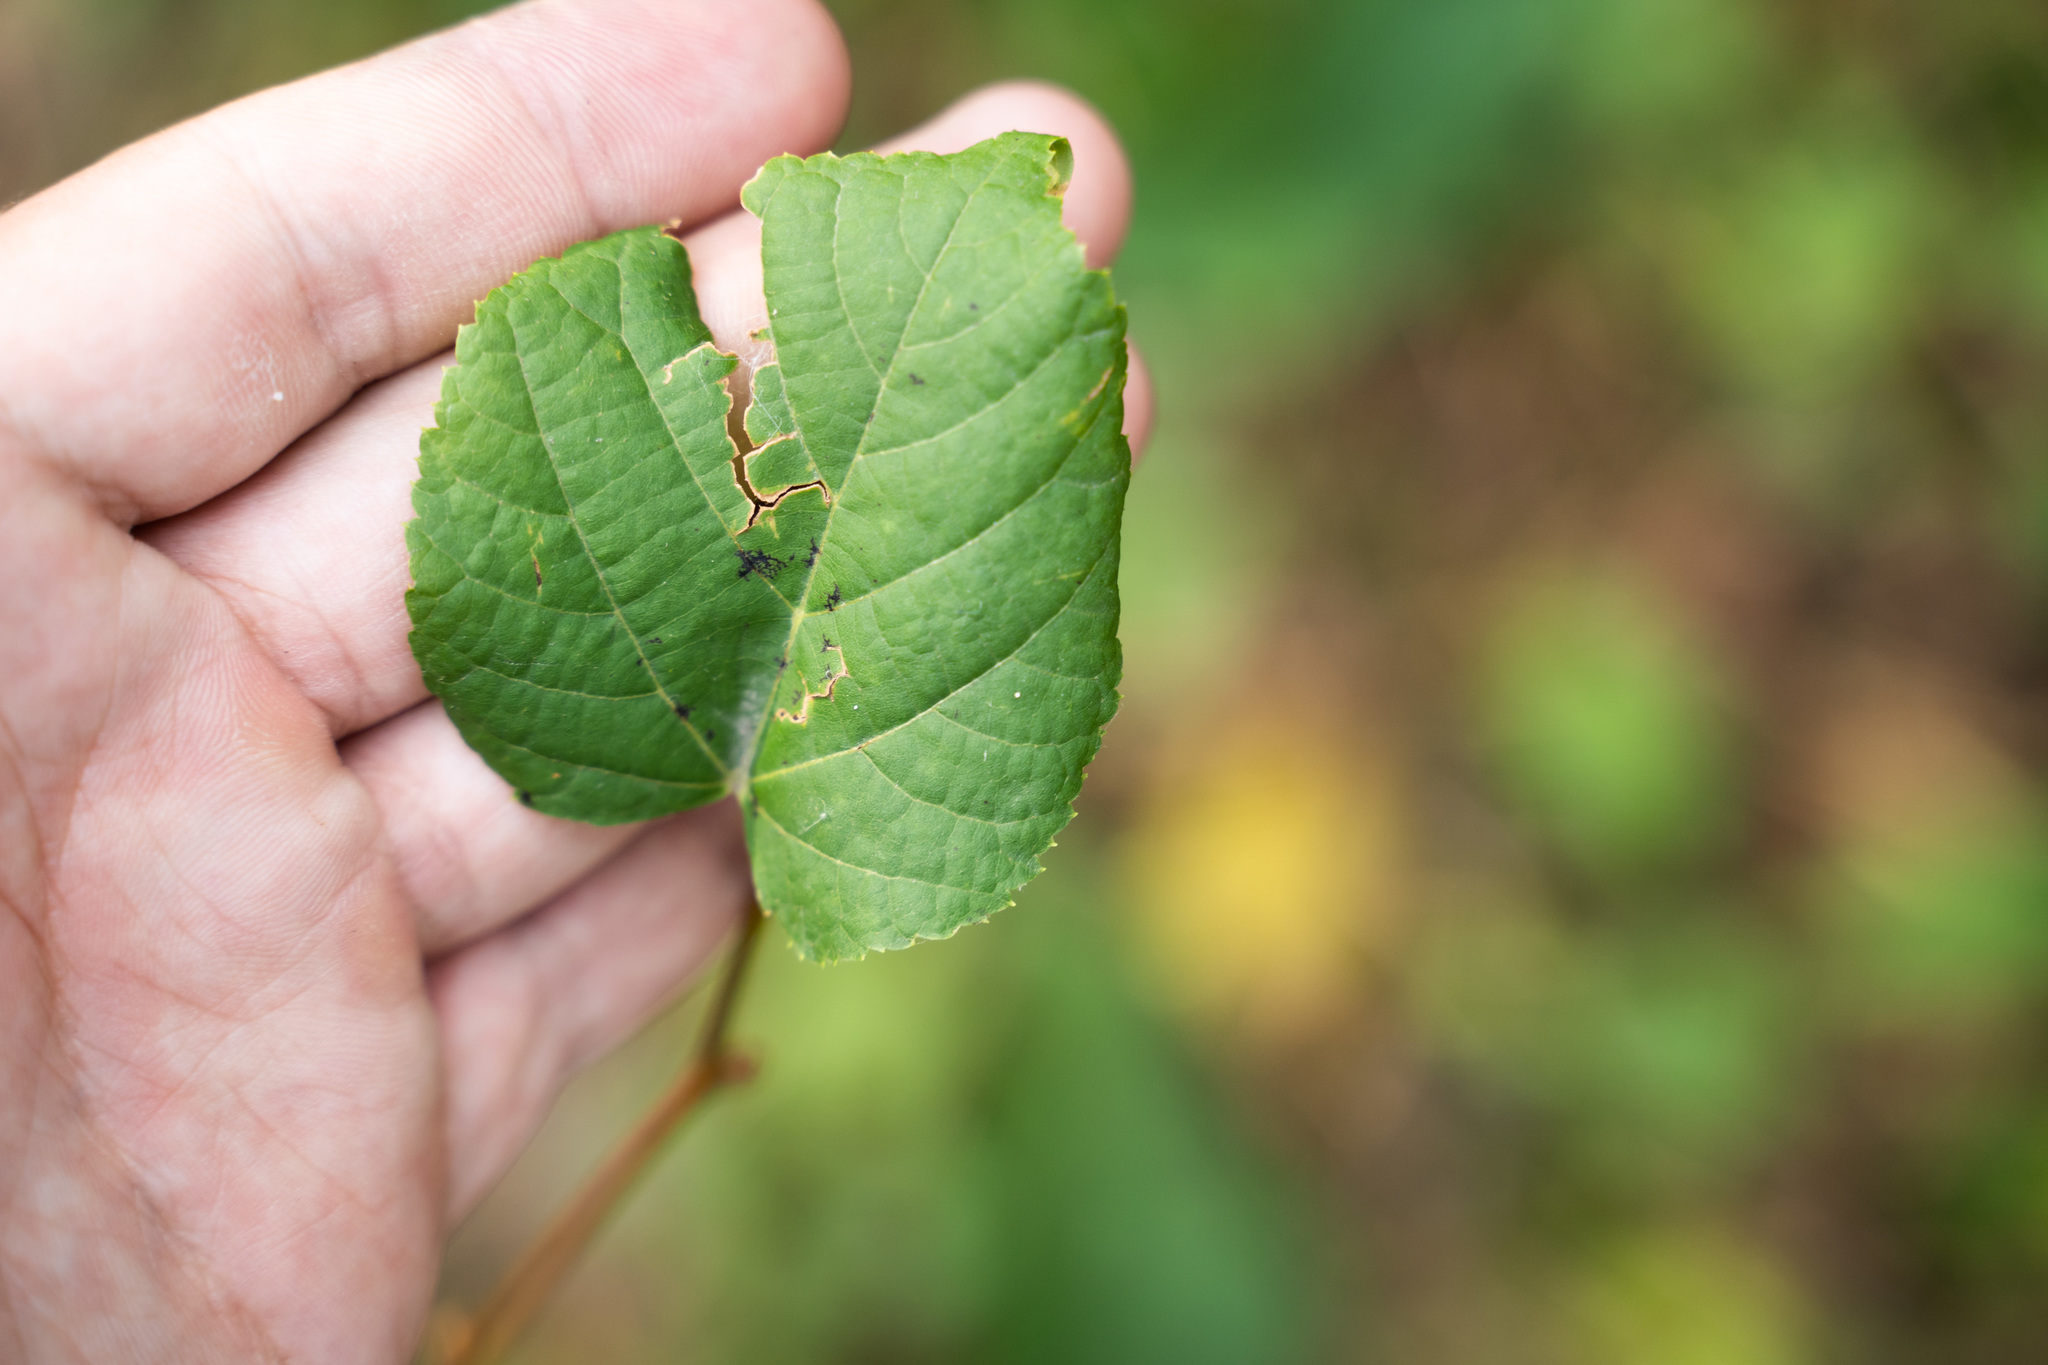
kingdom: Plantae
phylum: Tracheophyta
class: Magnoliopsida
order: Malvales
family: Malvaceae
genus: Tilia
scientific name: Tilia cordata
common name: Small-leaved lime
